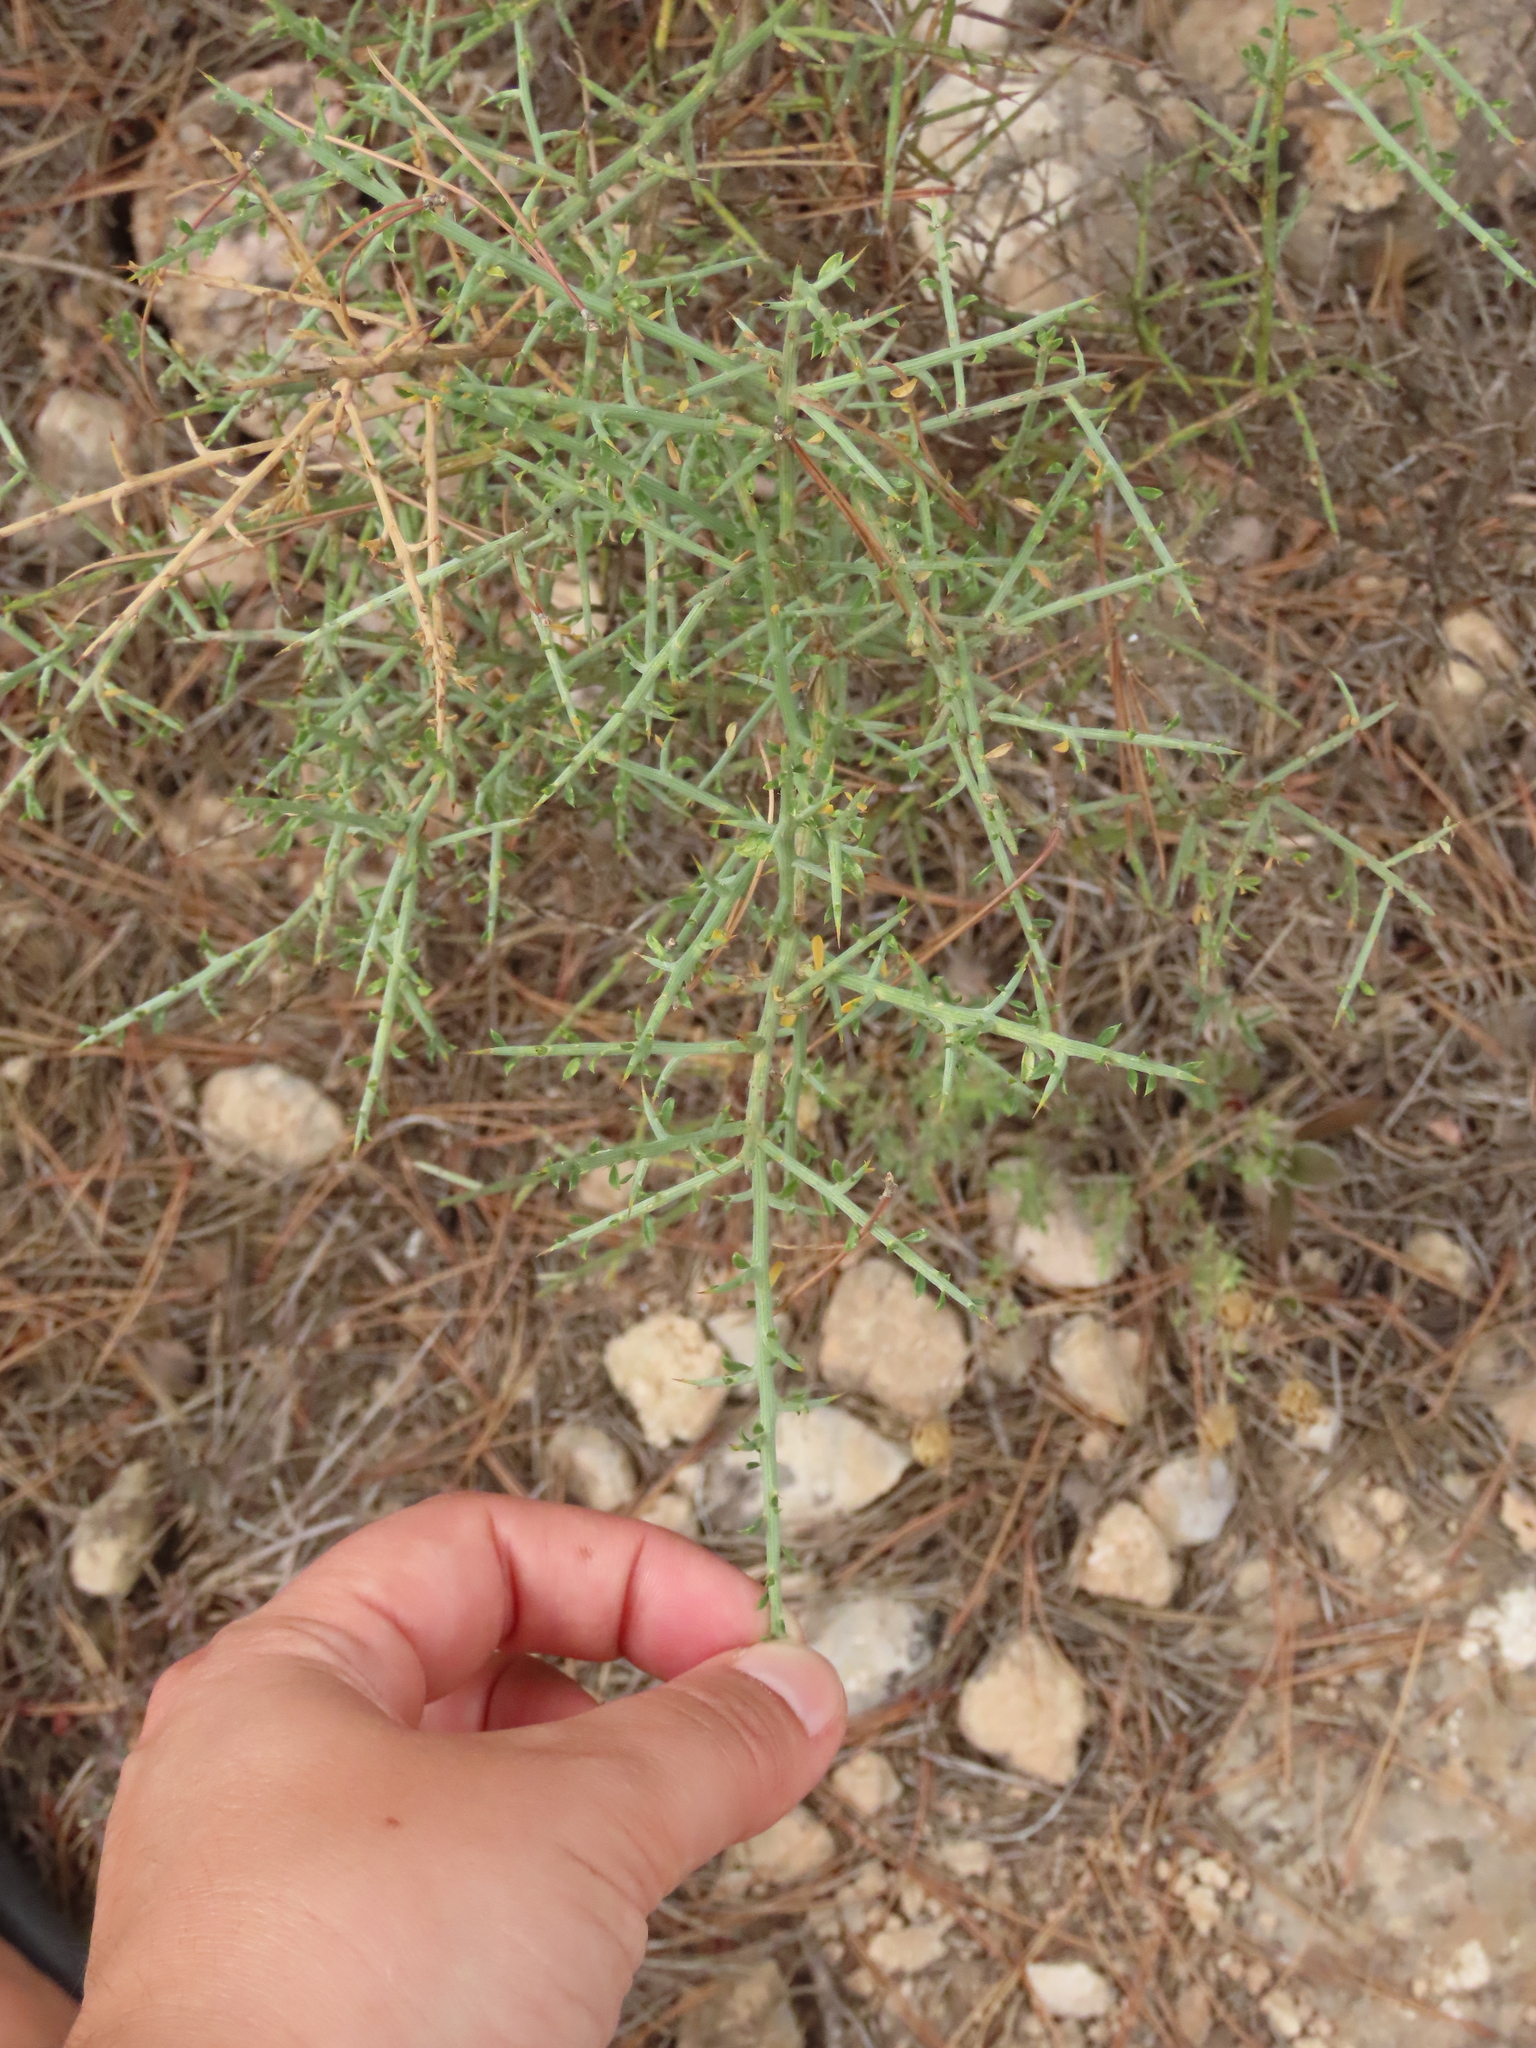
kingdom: Plantae
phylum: Tracheophyta
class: Magnoliopsida
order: Fabales
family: Fabaceae
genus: Genista
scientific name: Genista scorpius
